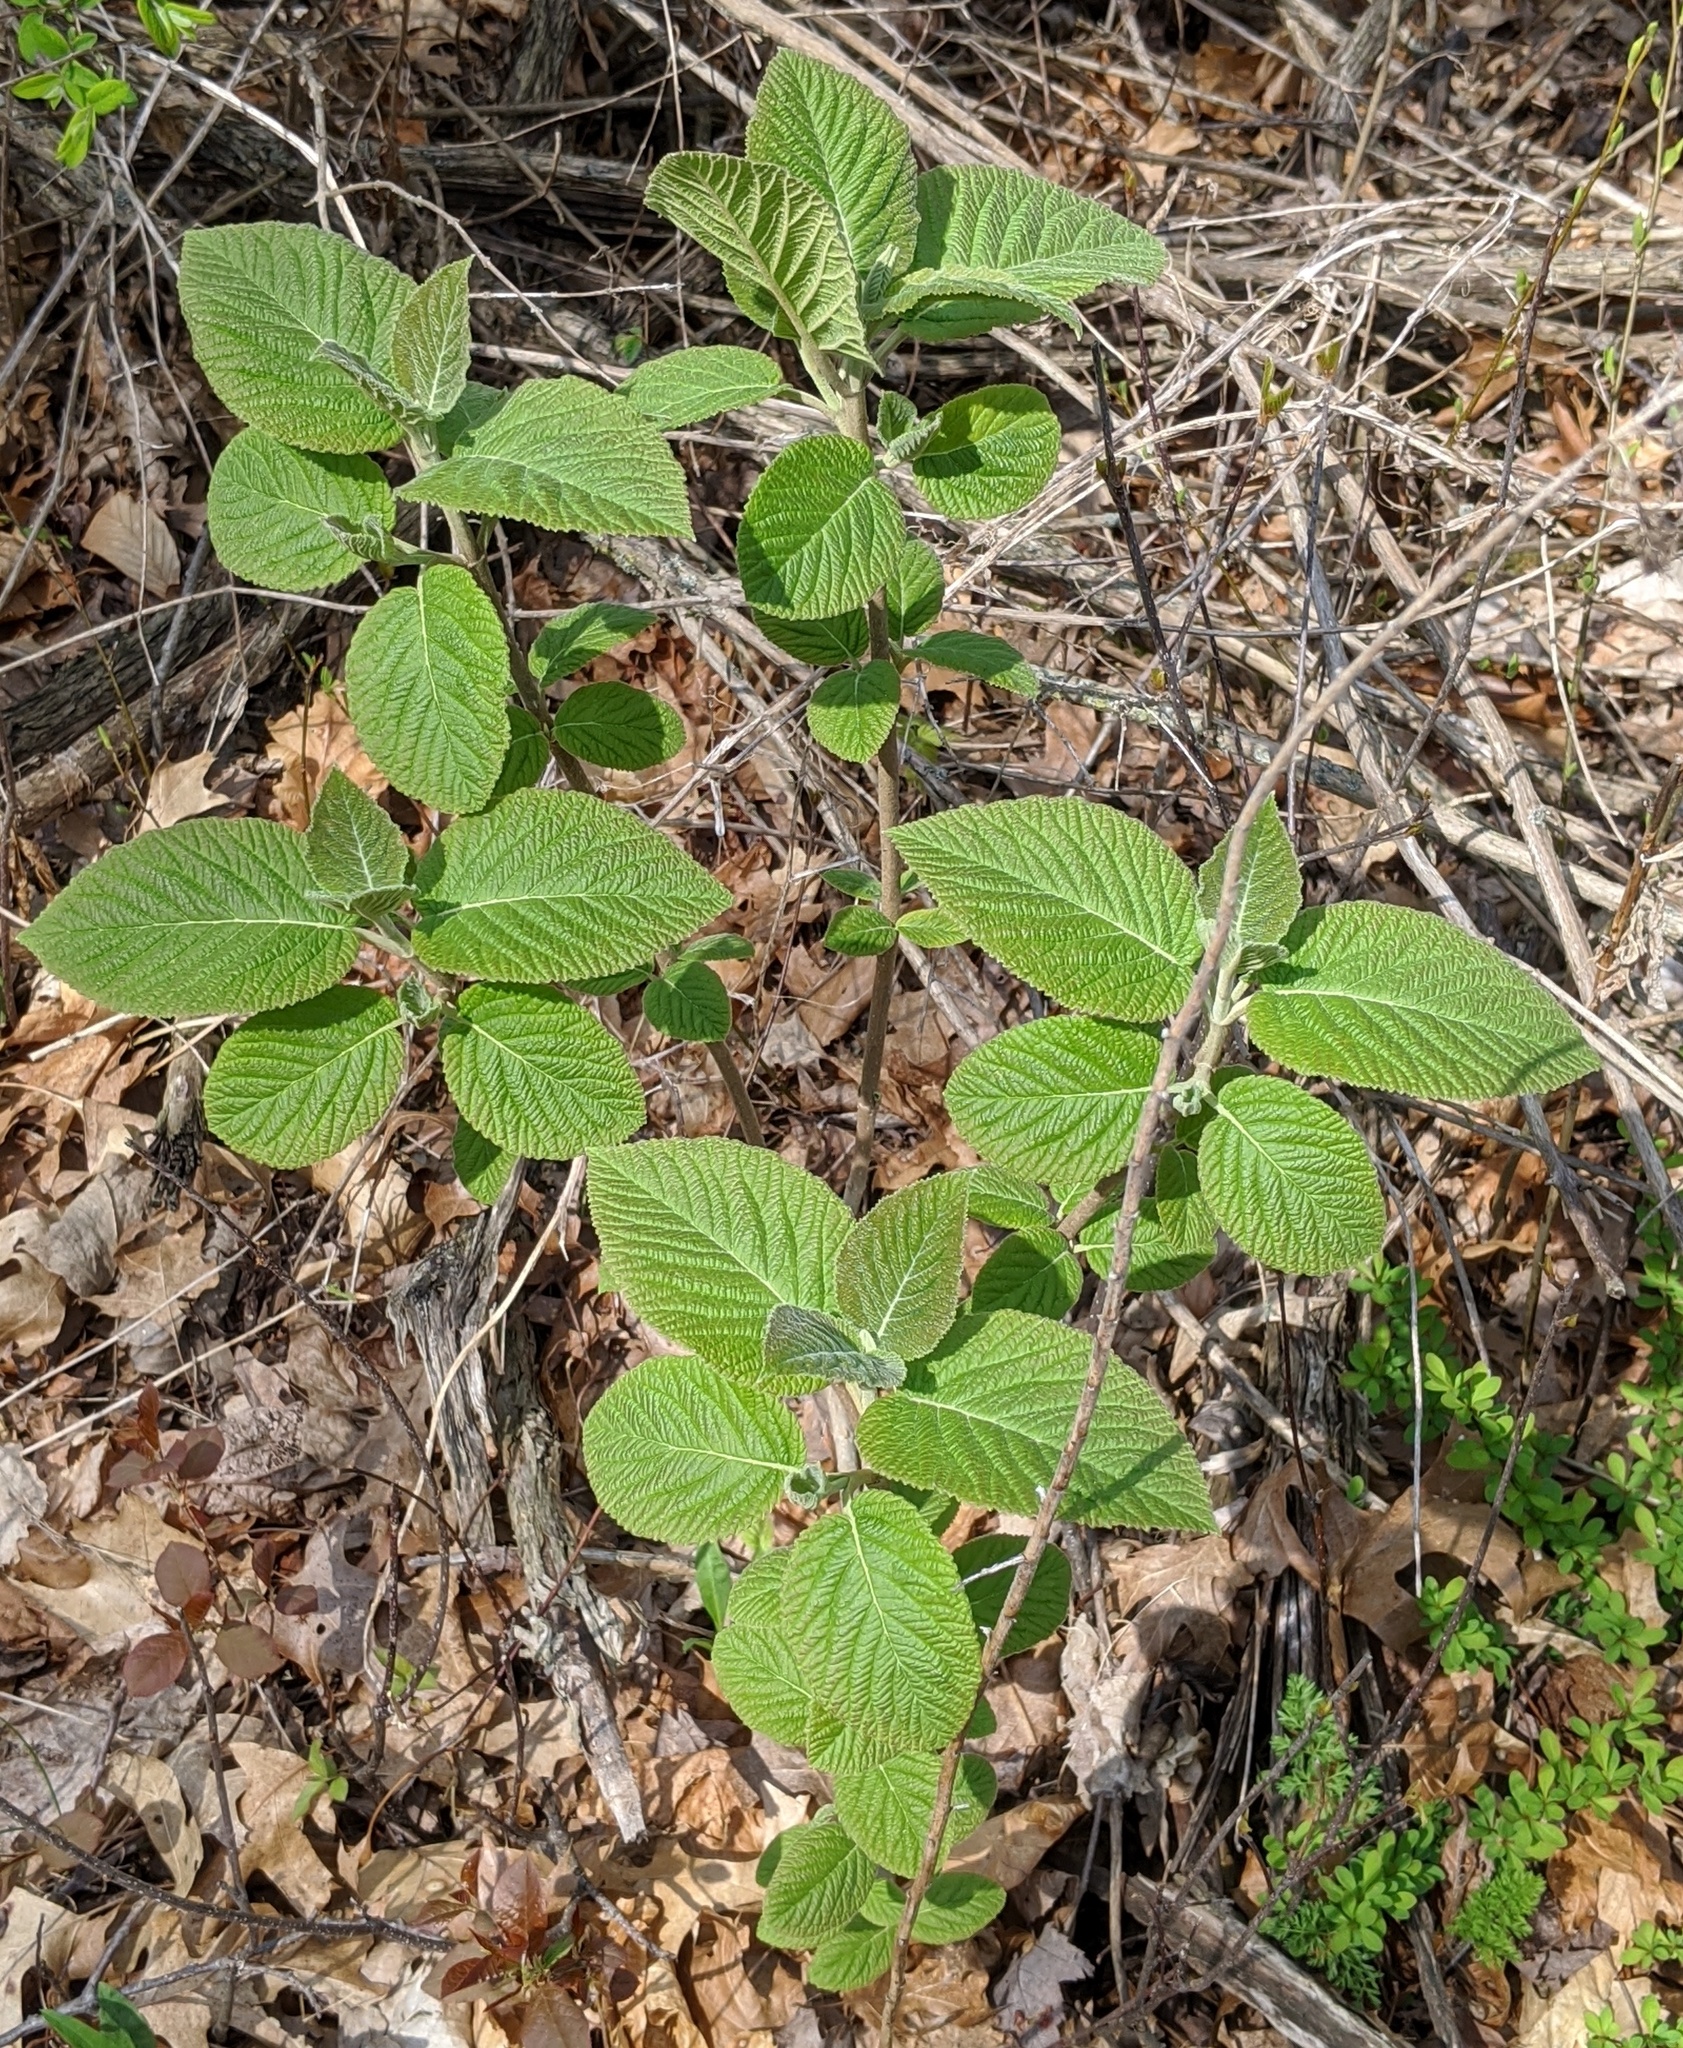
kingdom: Plantae
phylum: Tracheophyta
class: Magnoliopsida
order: Dipsacales
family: Viburnaceae
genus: Viburnum
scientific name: Viburnum lantana
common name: Wayfaring tree
